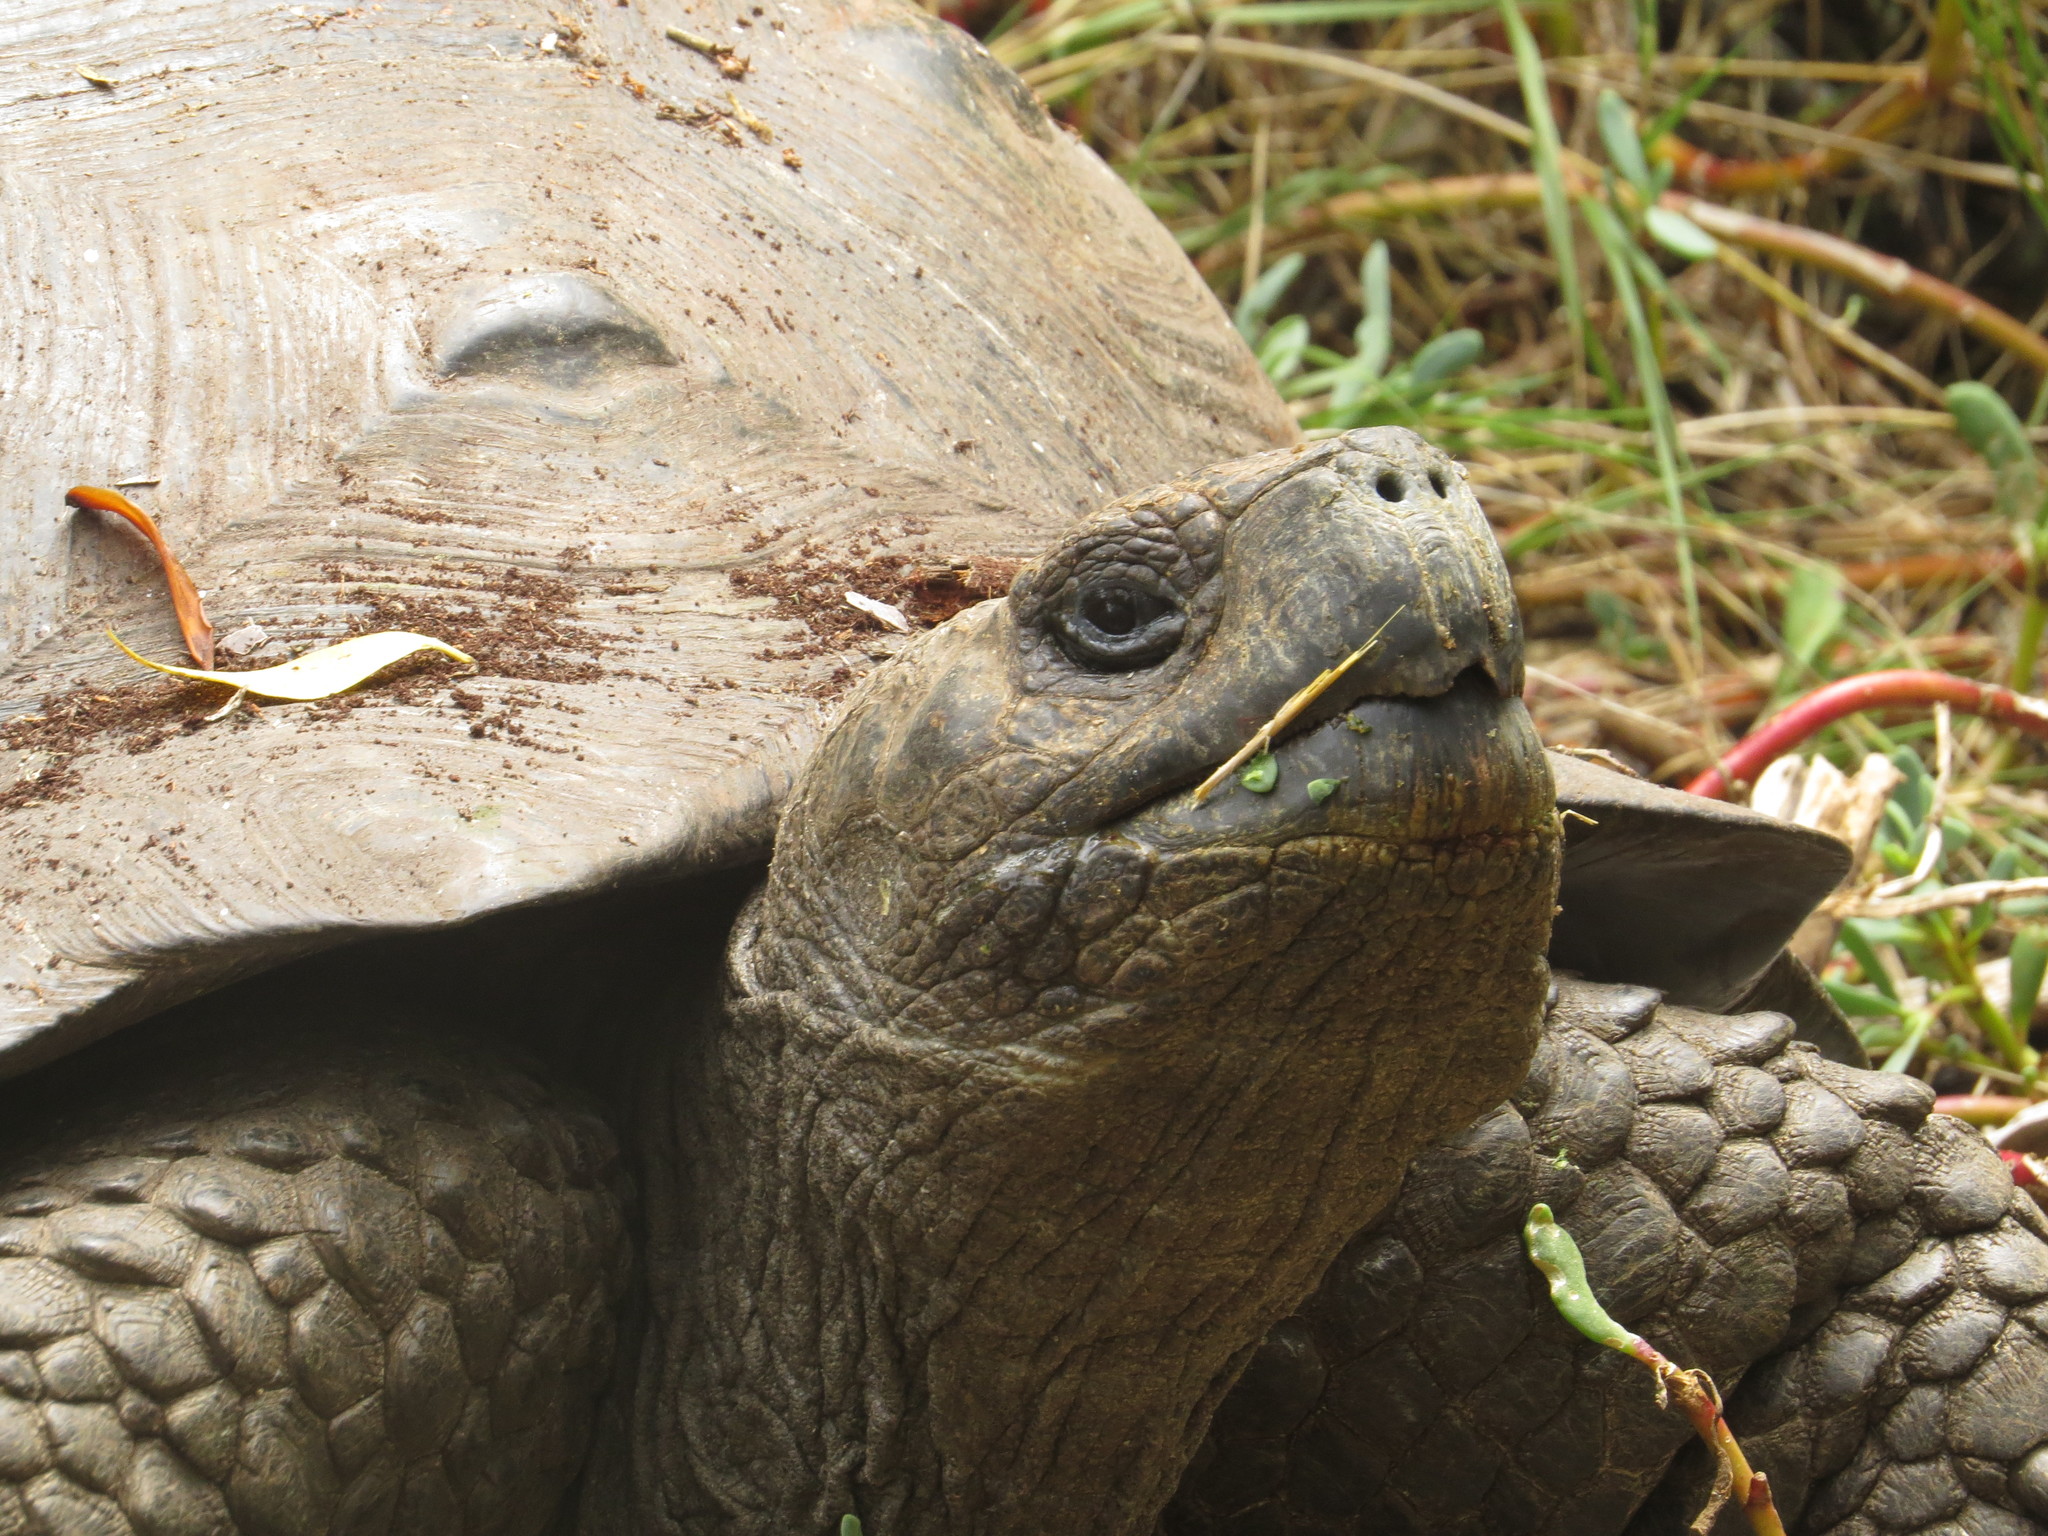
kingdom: Animalia
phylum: Chordata
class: Testudines
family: Testudinidae
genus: Chelonoidis
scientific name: Chelonoidis guntheri
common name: Sierra negra giant tortoise
